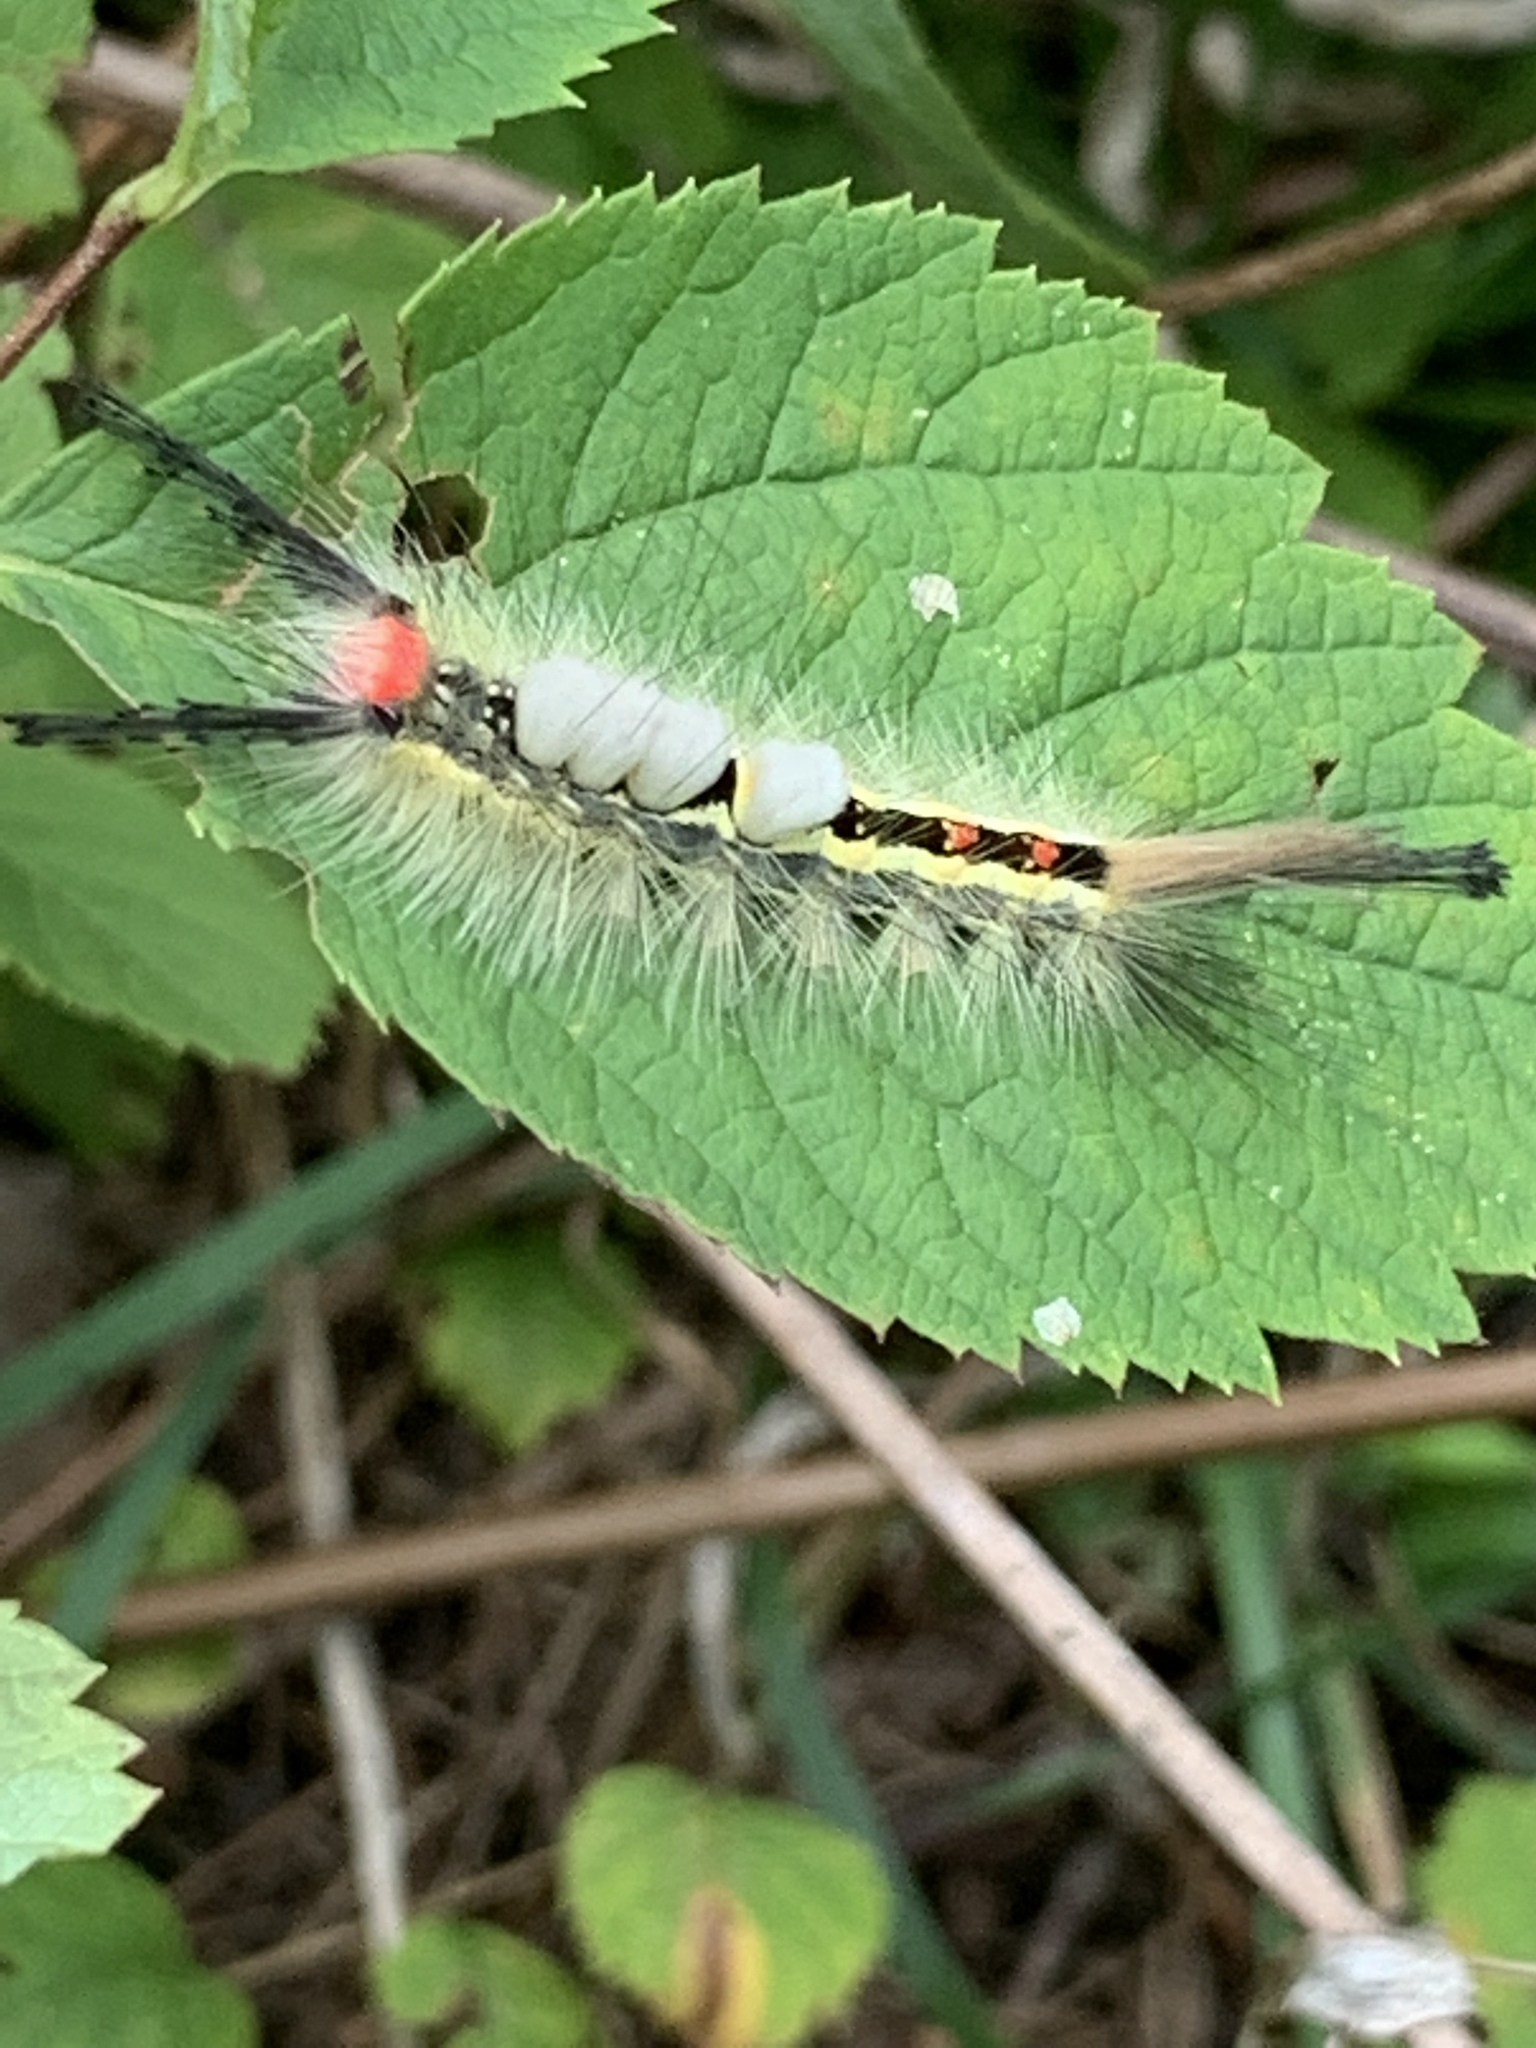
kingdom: Animalia
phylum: Arthropoda
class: Insecta
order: Lepidoptera
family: Erebidae
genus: Orgyia
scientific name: Orgyia leucostigma
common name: White-marked tussock moth
